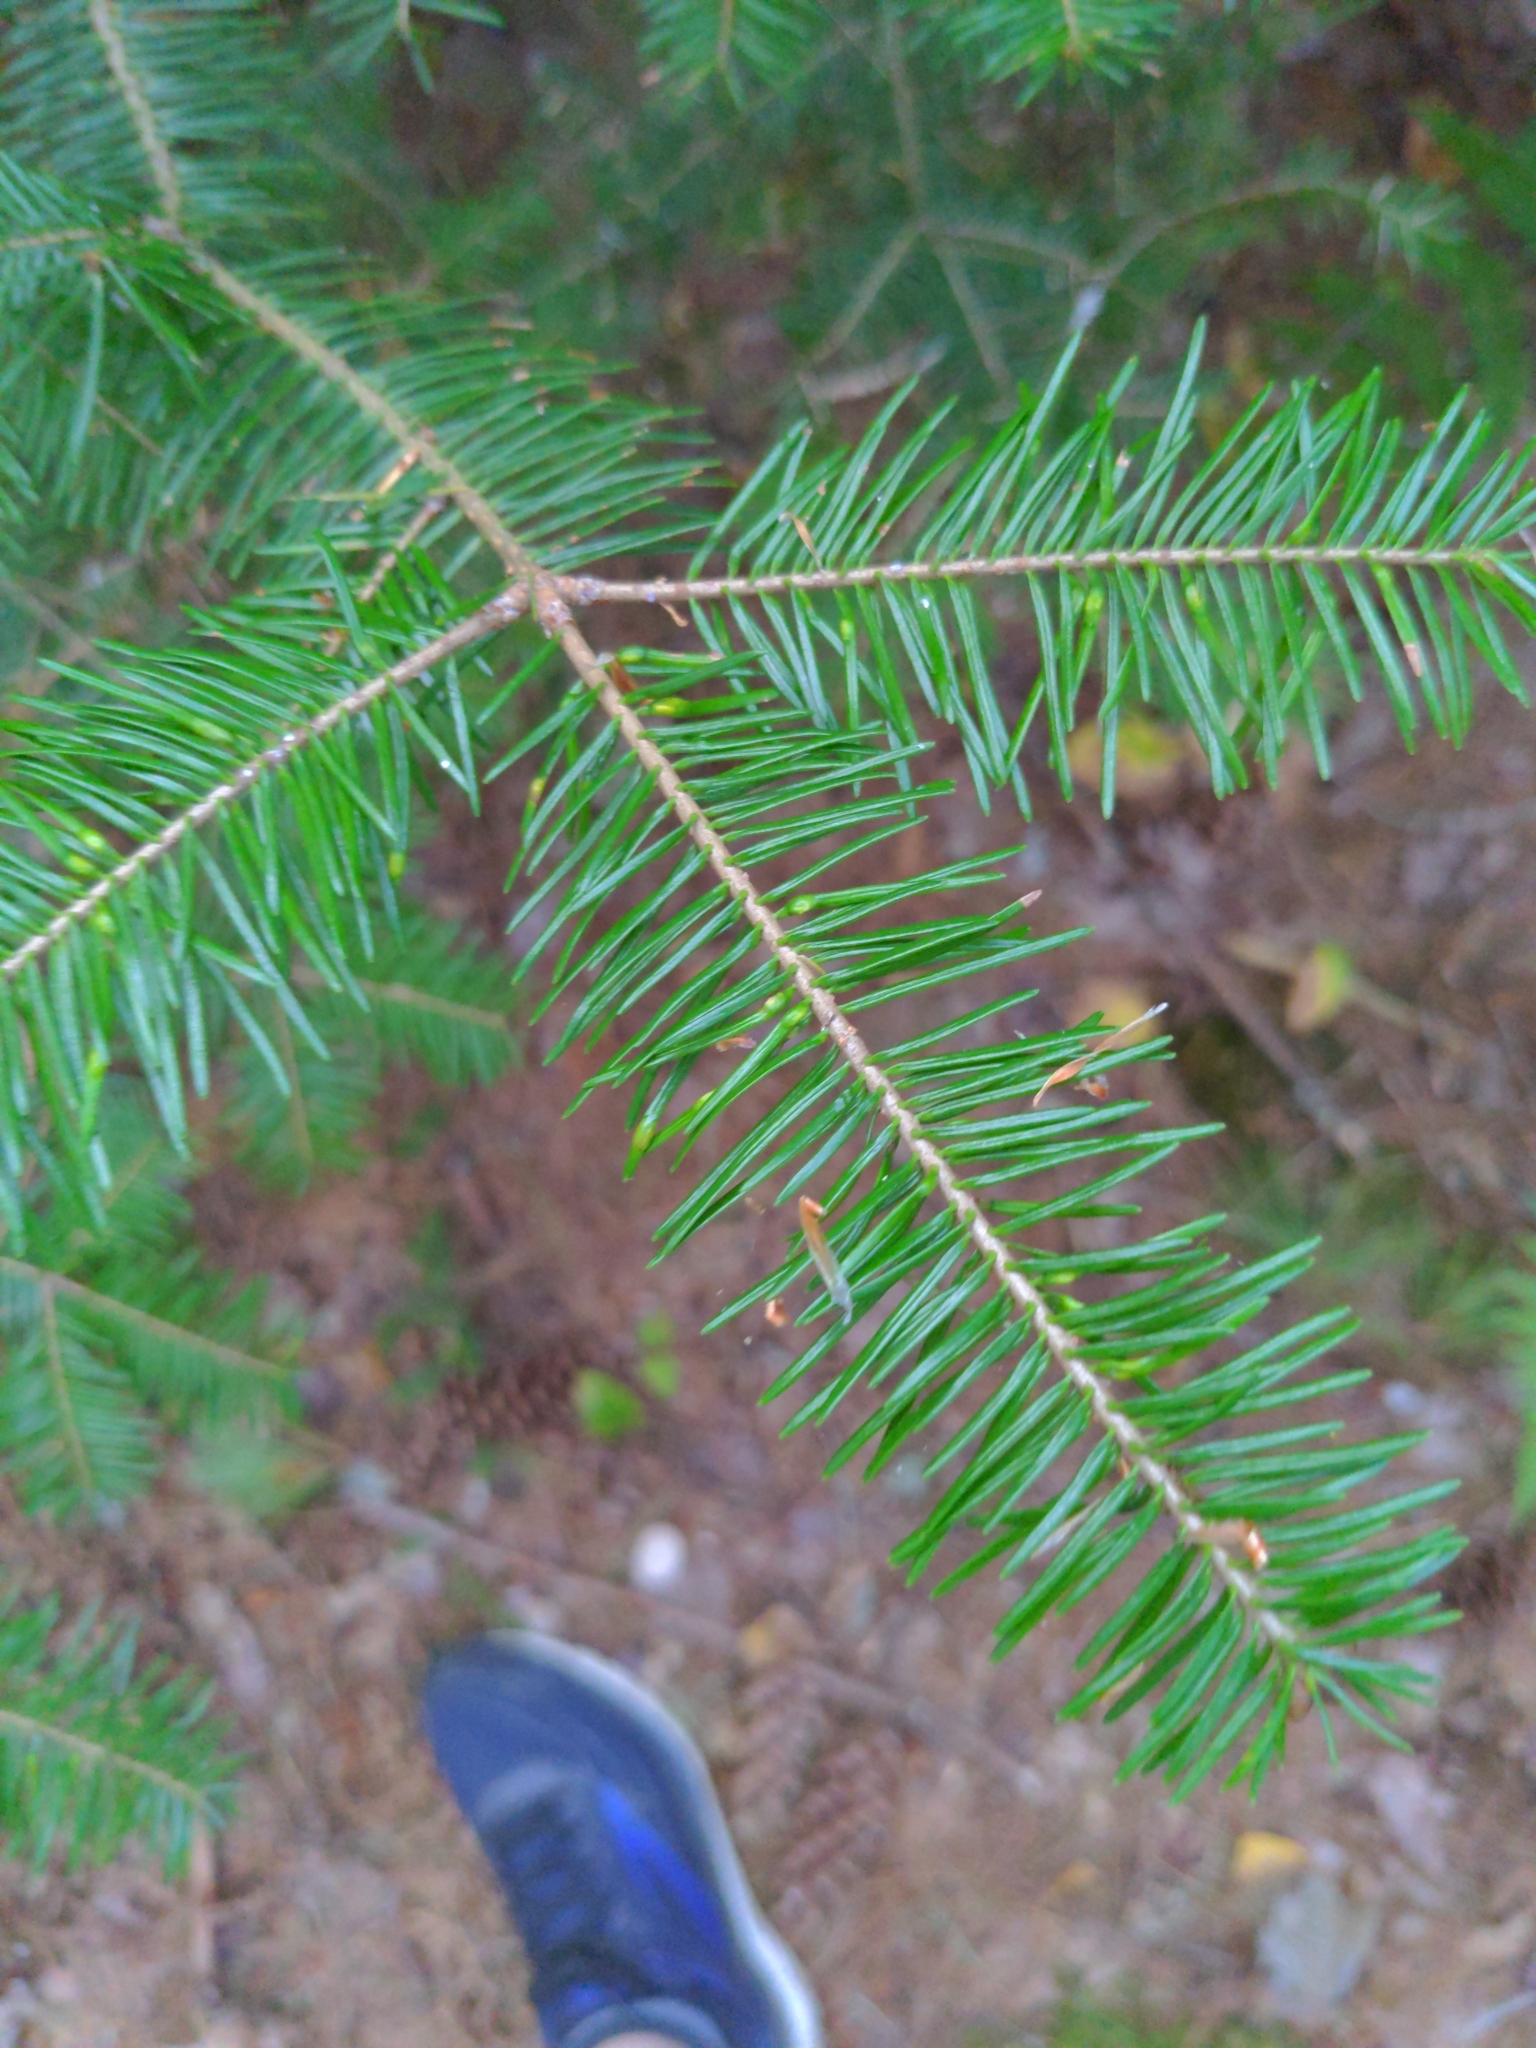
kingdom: Plantae
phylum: Tracheophyta
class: Pinopsida
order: Pinales
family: Pinaceae
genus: Abies
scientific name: Abies balsamea
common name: Balsam fir
